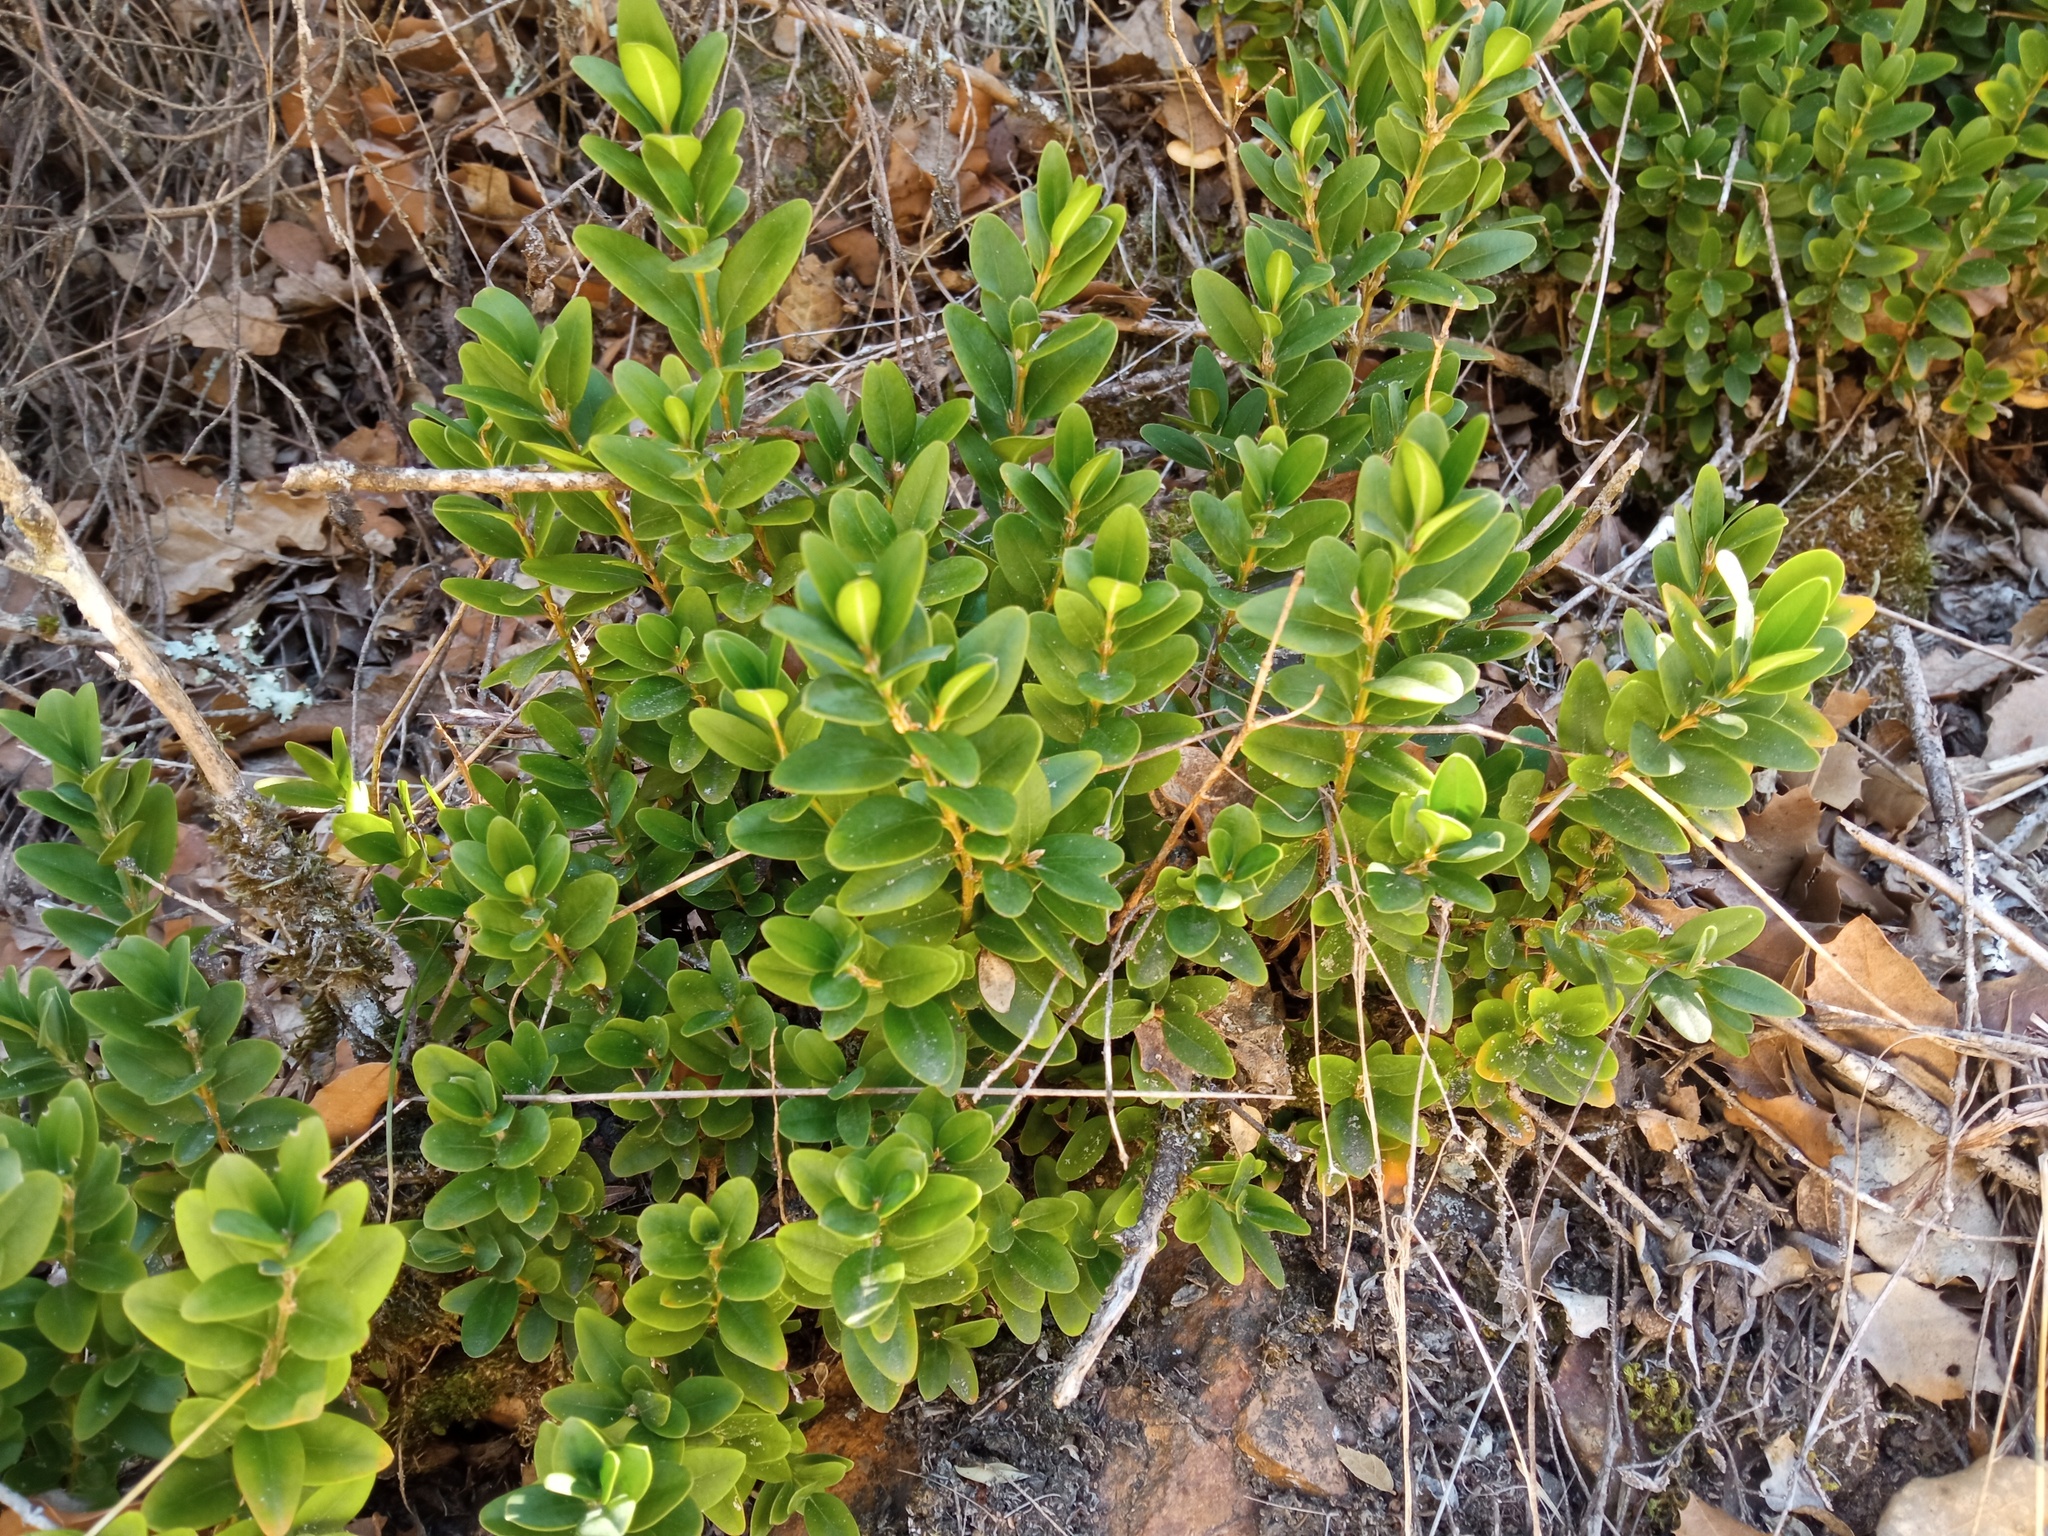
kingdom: Plantae
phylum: Tracheophyta
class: Magnoliopsida
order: Buxales
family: Buxaceae
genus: Buxus
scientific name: Buxus sempervirens
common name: Box
